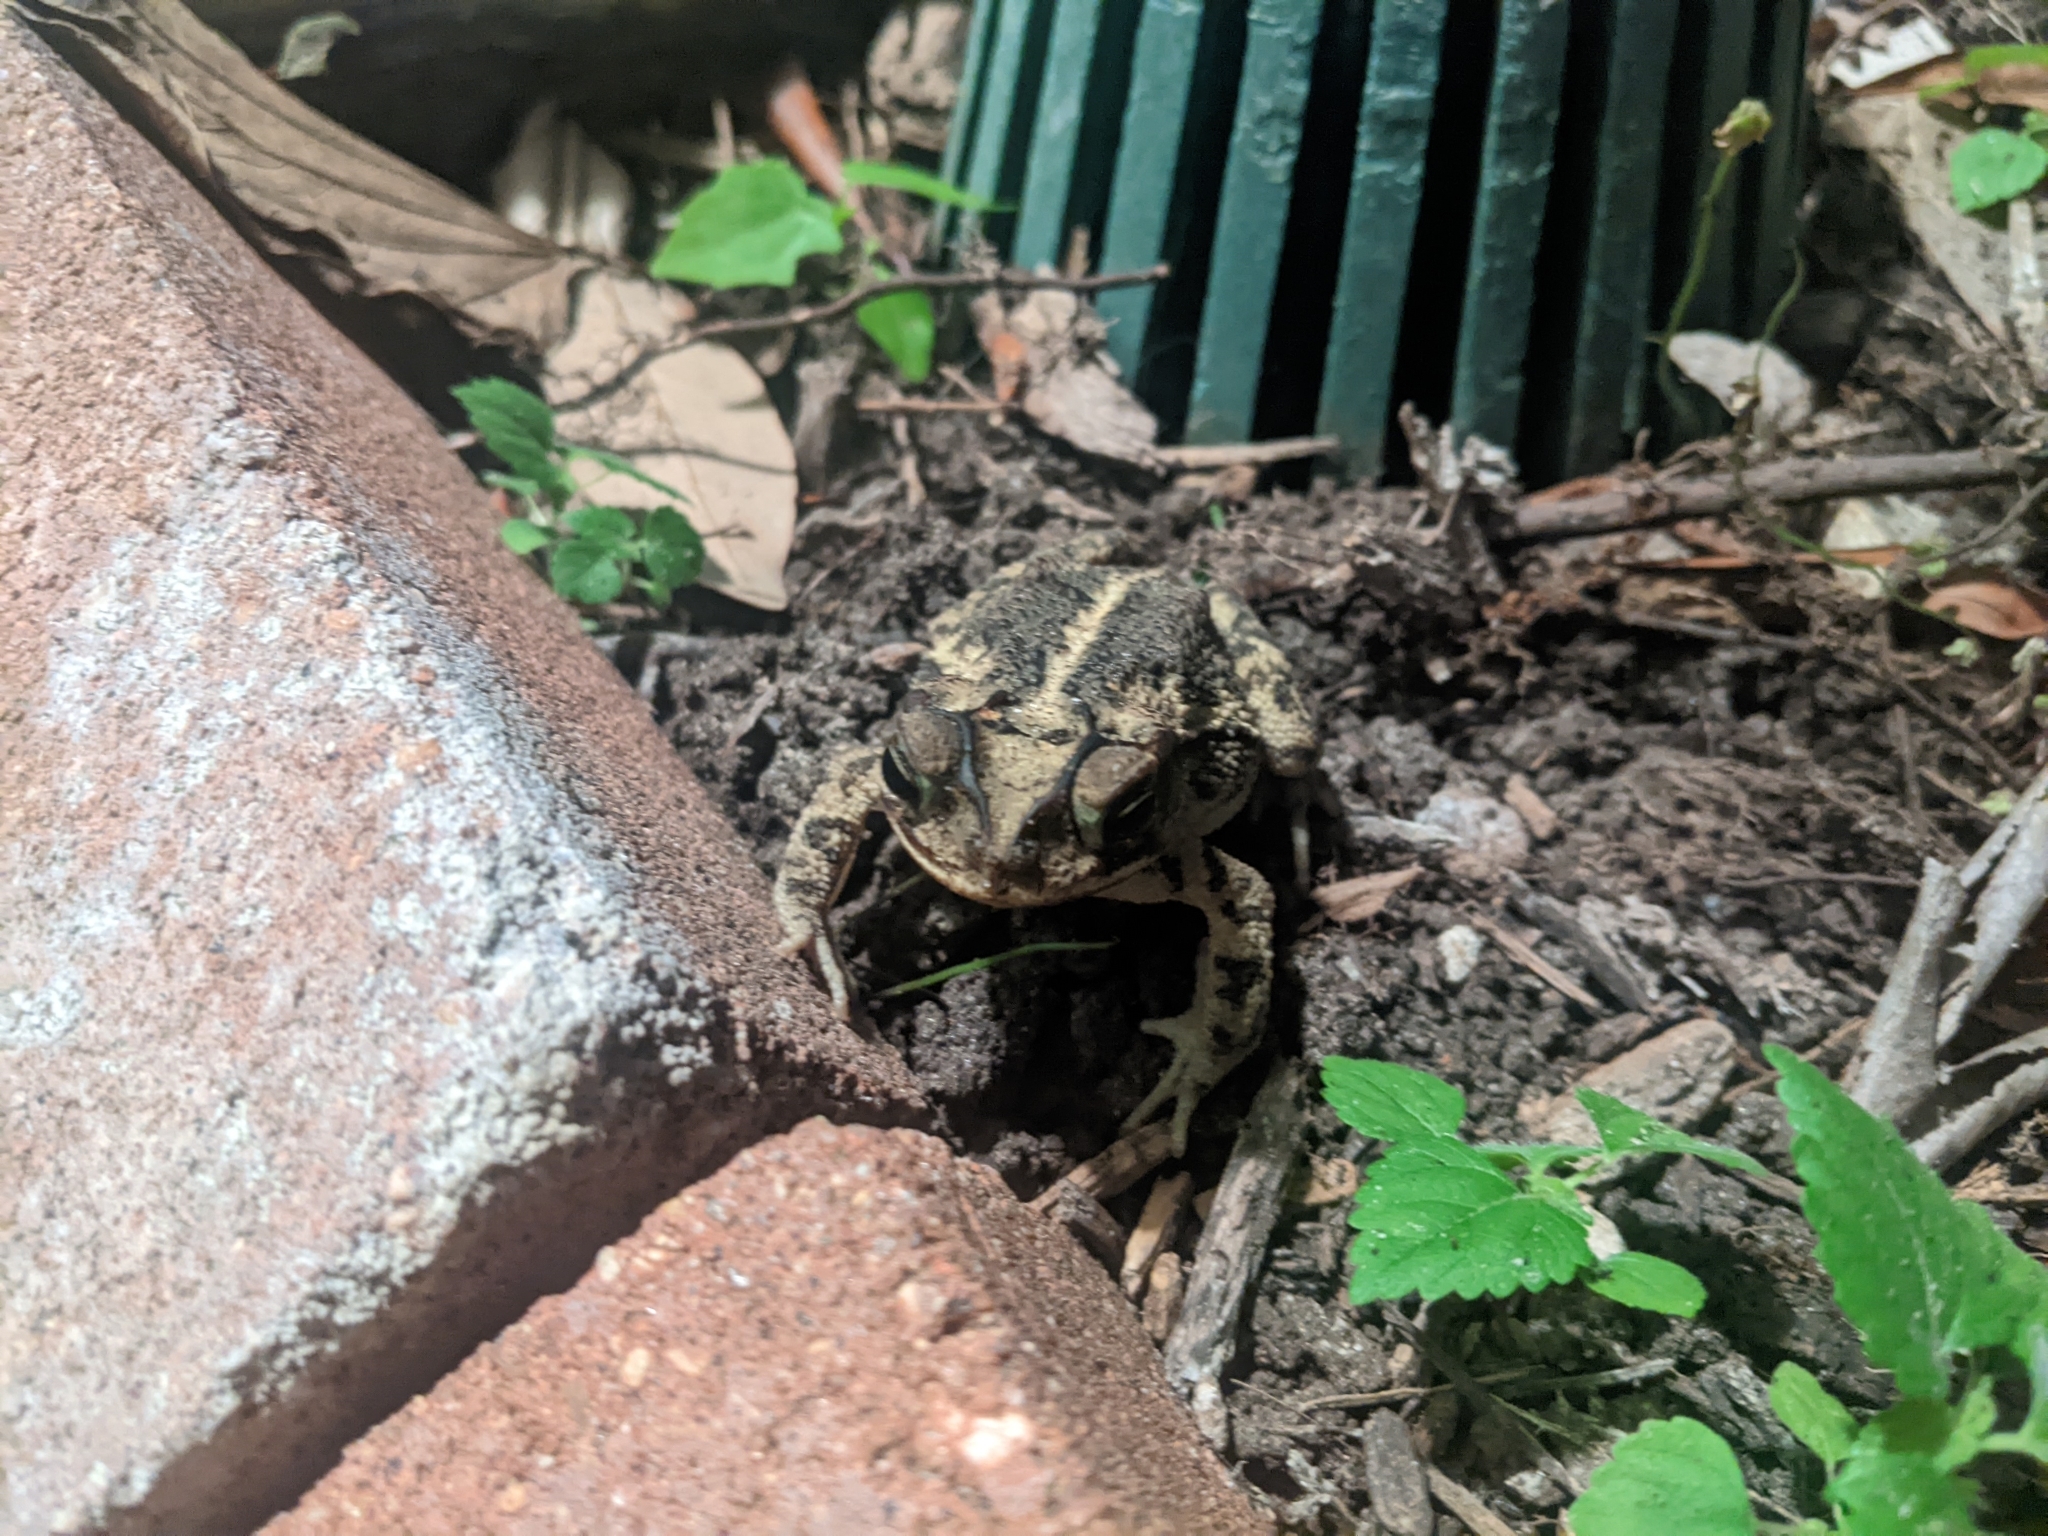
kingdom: Animalia
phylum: Chordata
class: Amphibia
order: Anura
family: Bufonidae
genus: Incilius
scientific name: Incilius nebulifer
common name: Gulf coast toad
